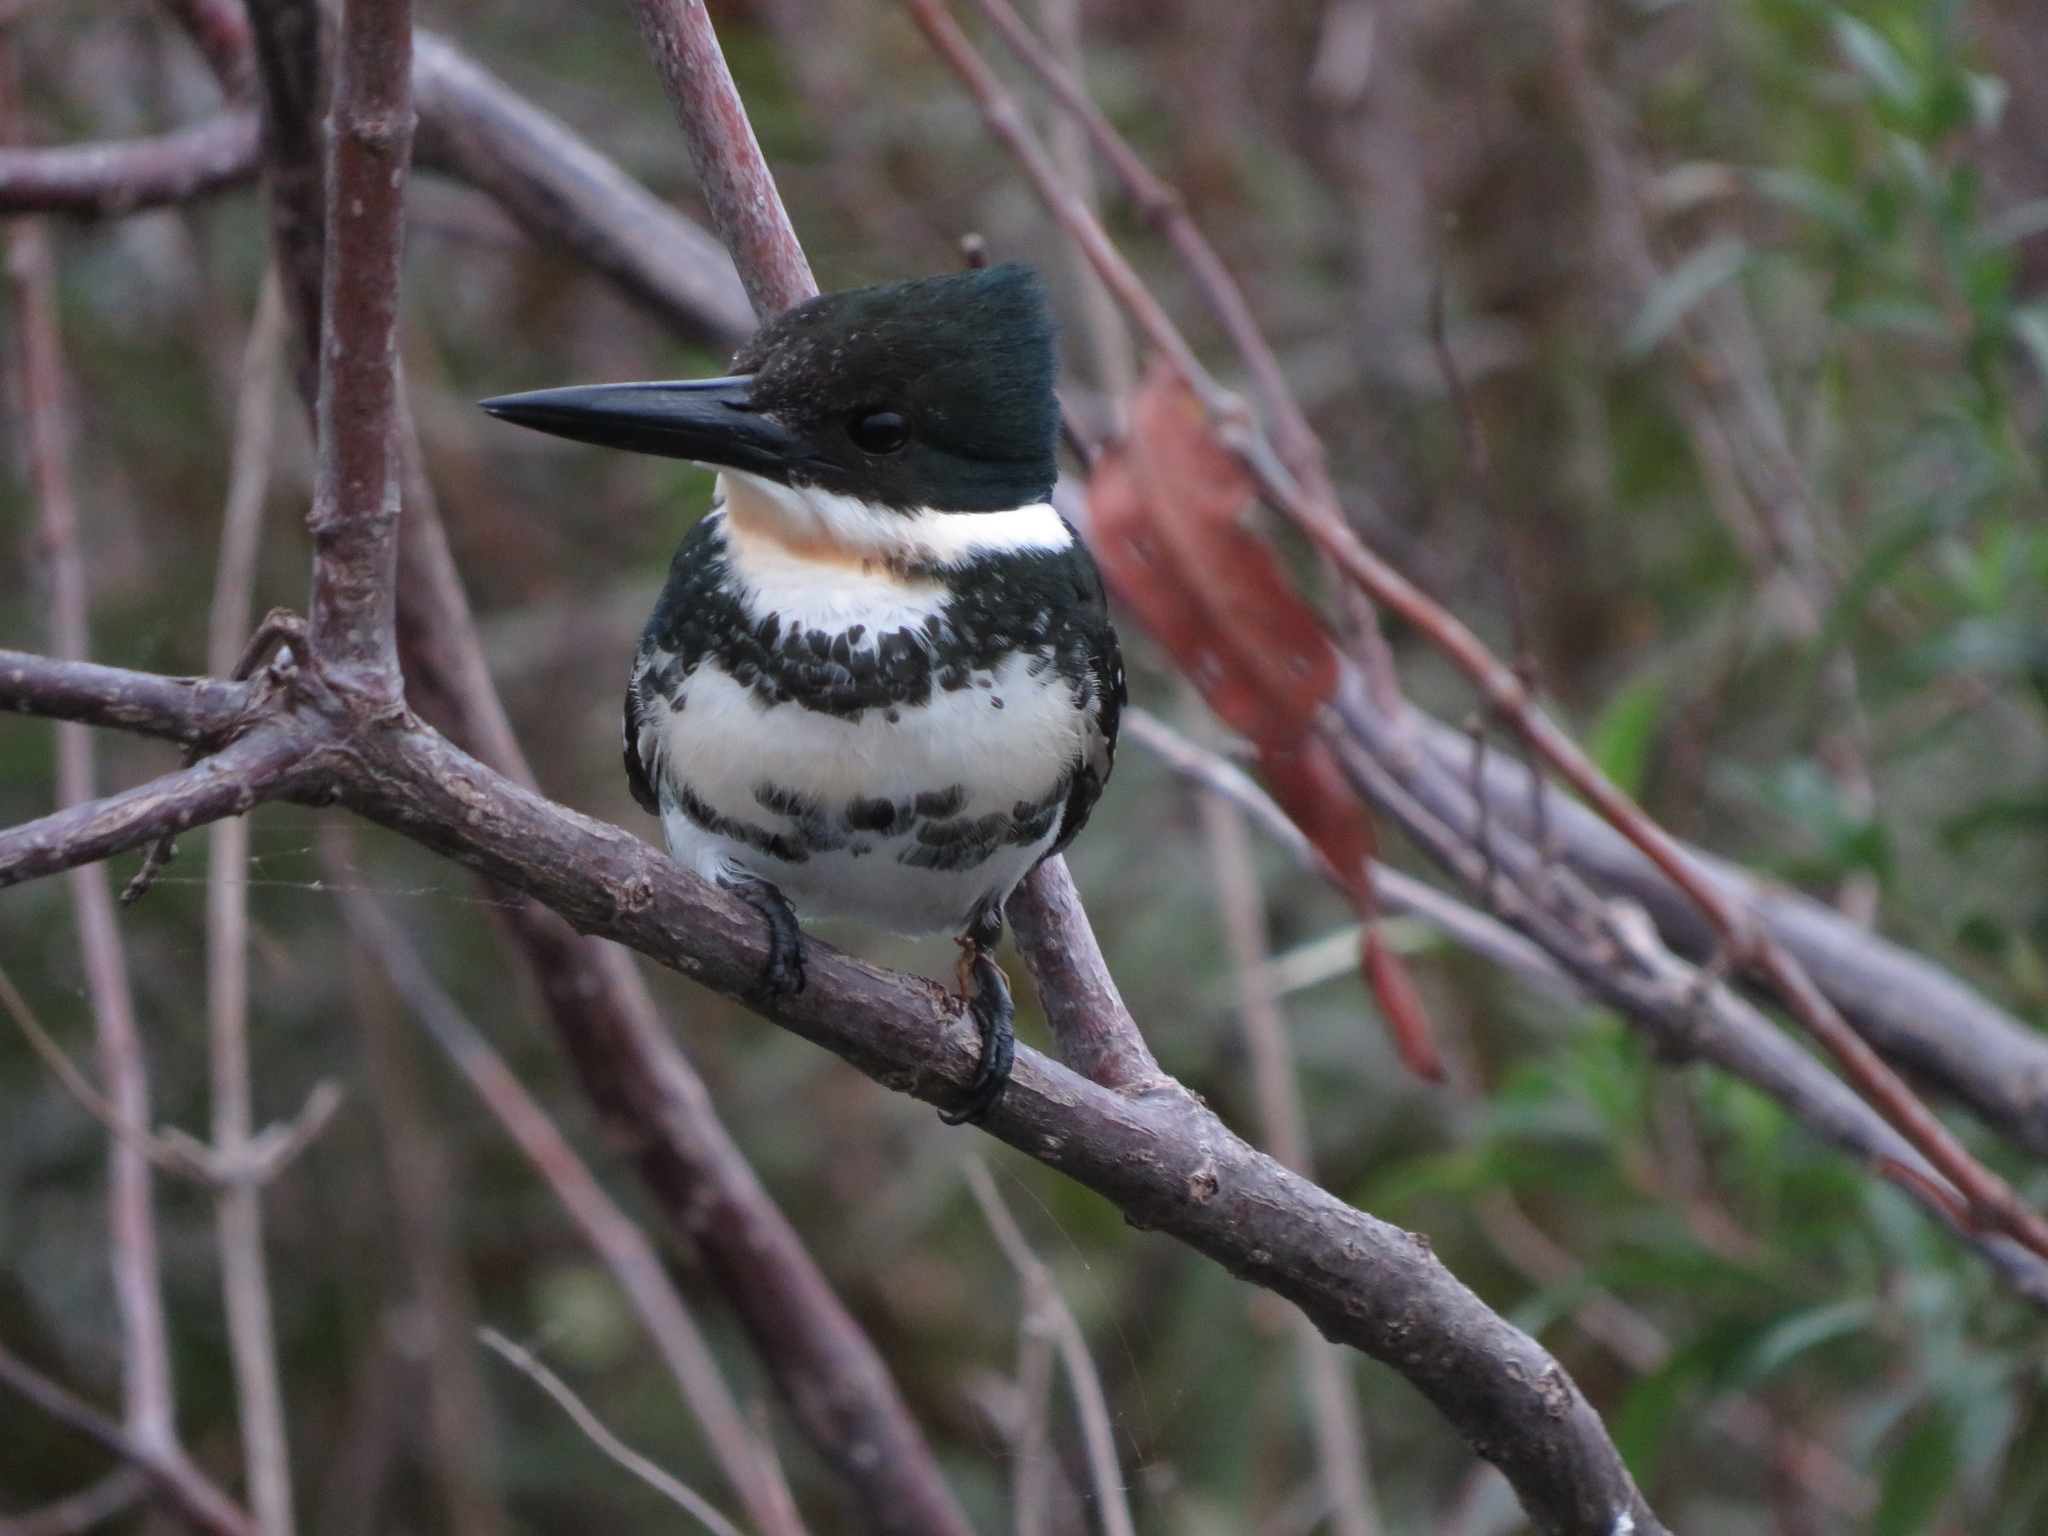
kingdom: Animalia
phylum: Chordata
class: Aves
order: Coraciiformes
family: Alcedinidae
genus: Chloroceryle
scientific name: Chloroceryle americana
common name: Green kingfisher
